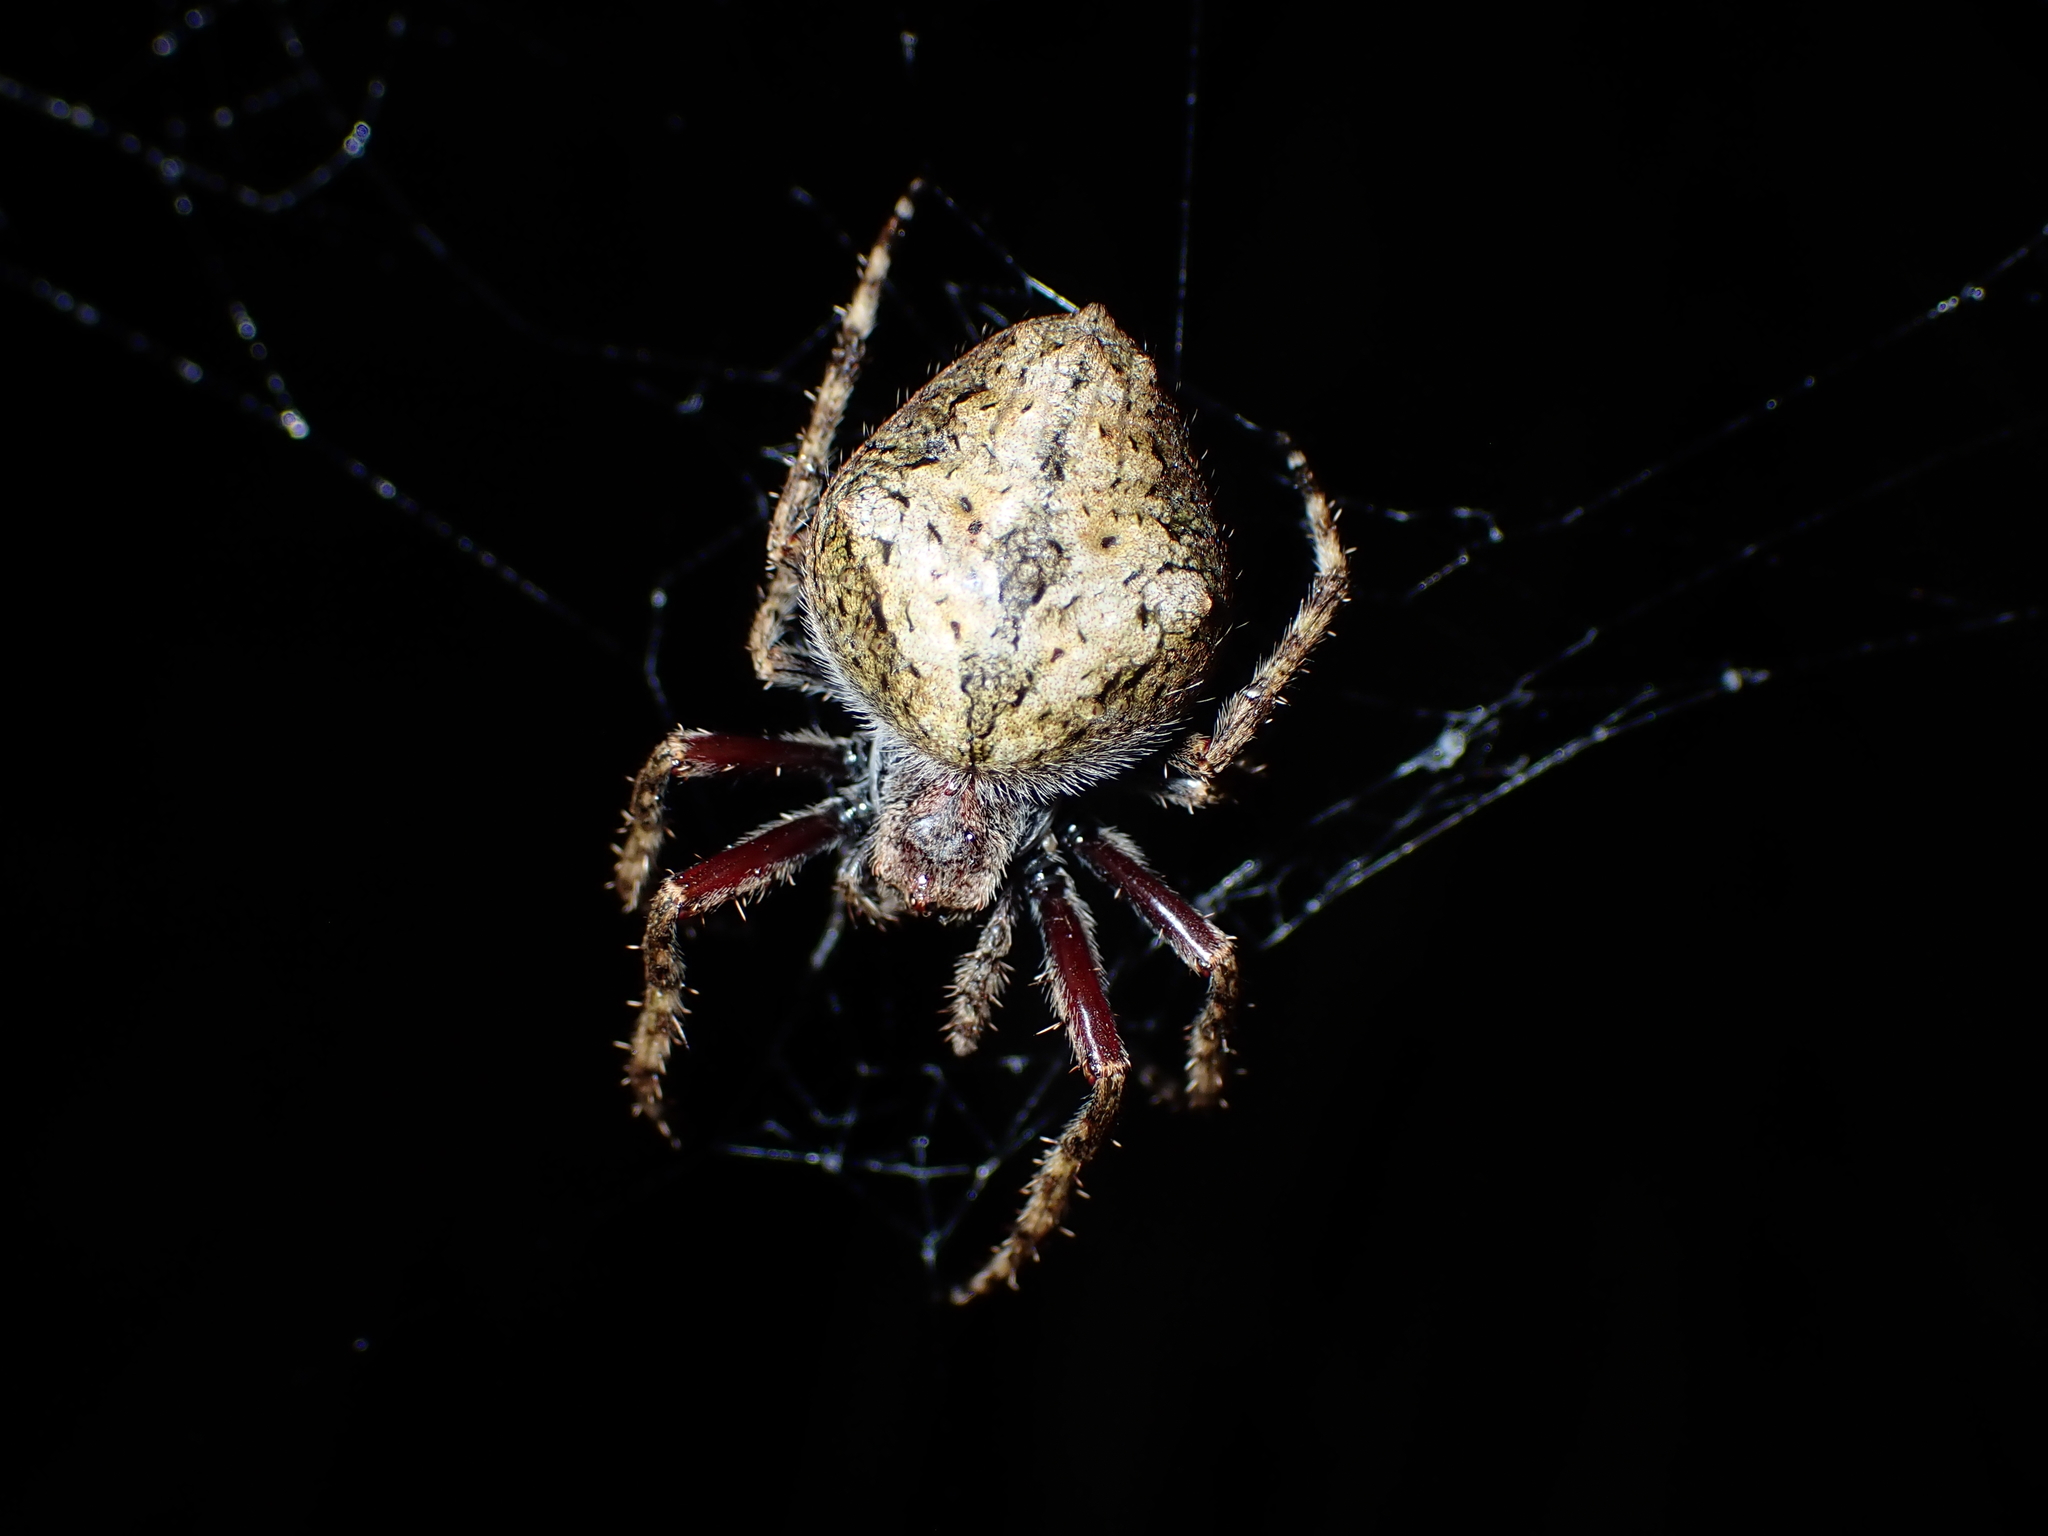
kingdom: Animalia
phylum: Arthropoda
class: Arachnida
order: Araneae
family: Araneidae
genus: Eriophora
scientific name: Eriophora pustulosa
